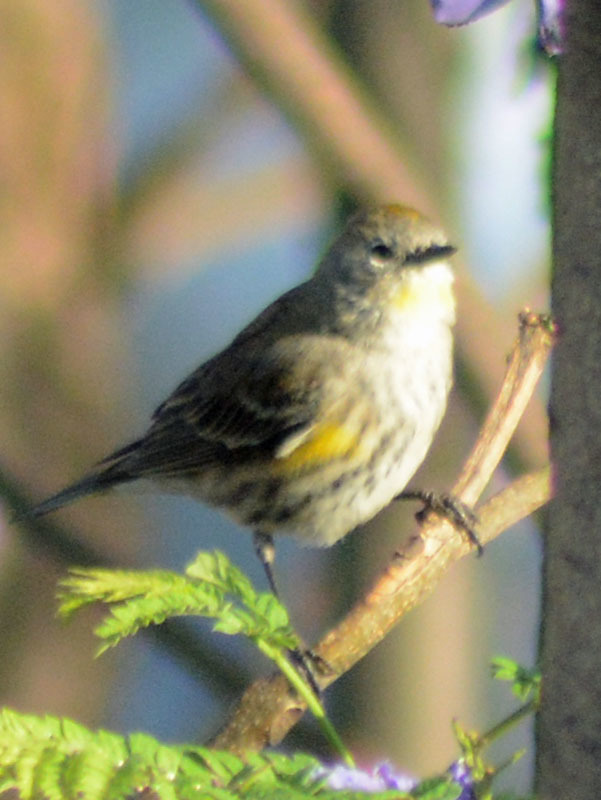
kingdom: Animalia
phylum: Chordata
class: Aves
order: Passeriformes
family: Parulidae
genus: Setophaga
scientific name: Setophaga auduboni
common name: Audubon's warbler
